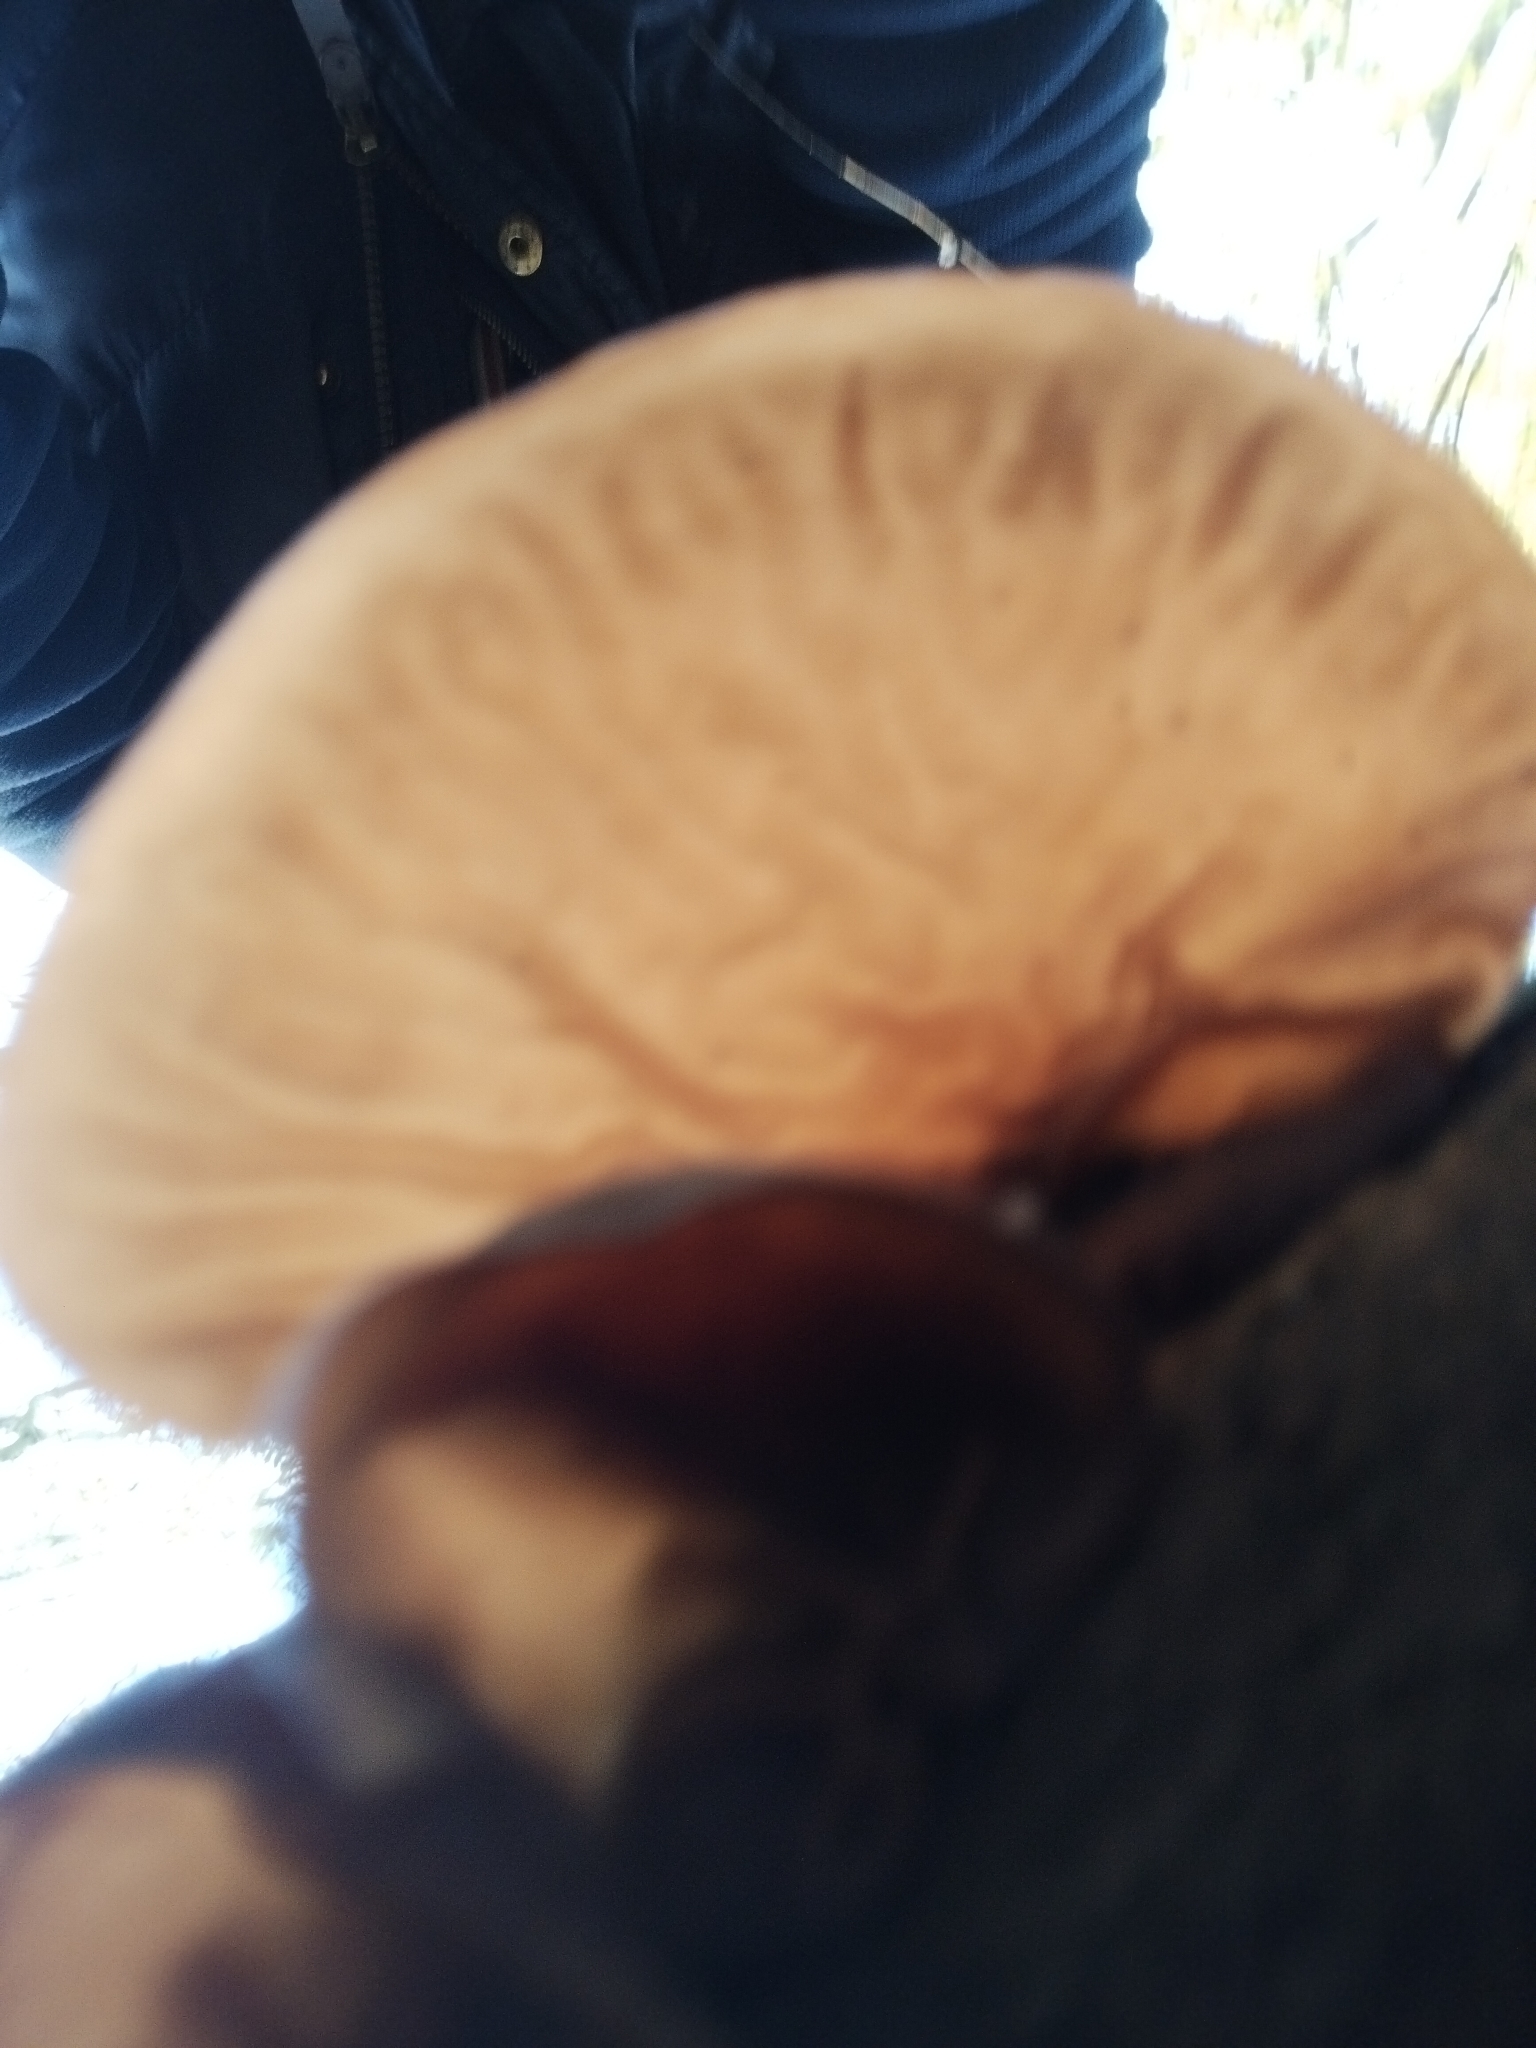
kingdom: Fungi
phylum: Basidiomycota
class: Agaricomycetes
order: Auriculariales
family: Auriculariaceae
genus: Auricularia
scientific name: Auricularia auricula-judae
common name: Jelly ear
